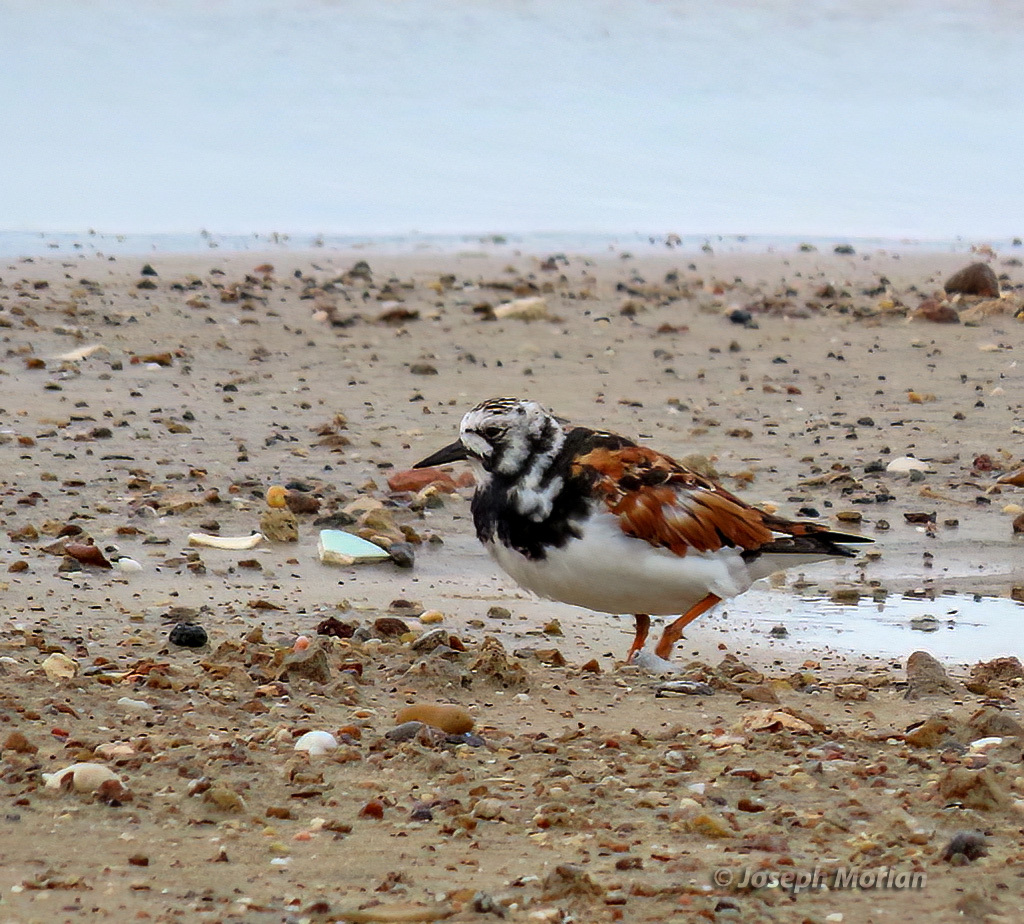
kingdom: Animalia
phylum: Chordata
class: Aves
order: Charadriiformes
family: Scolopacidae
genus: Arenaria
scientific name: Arenaria interpres
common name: Ruddy turnstone
